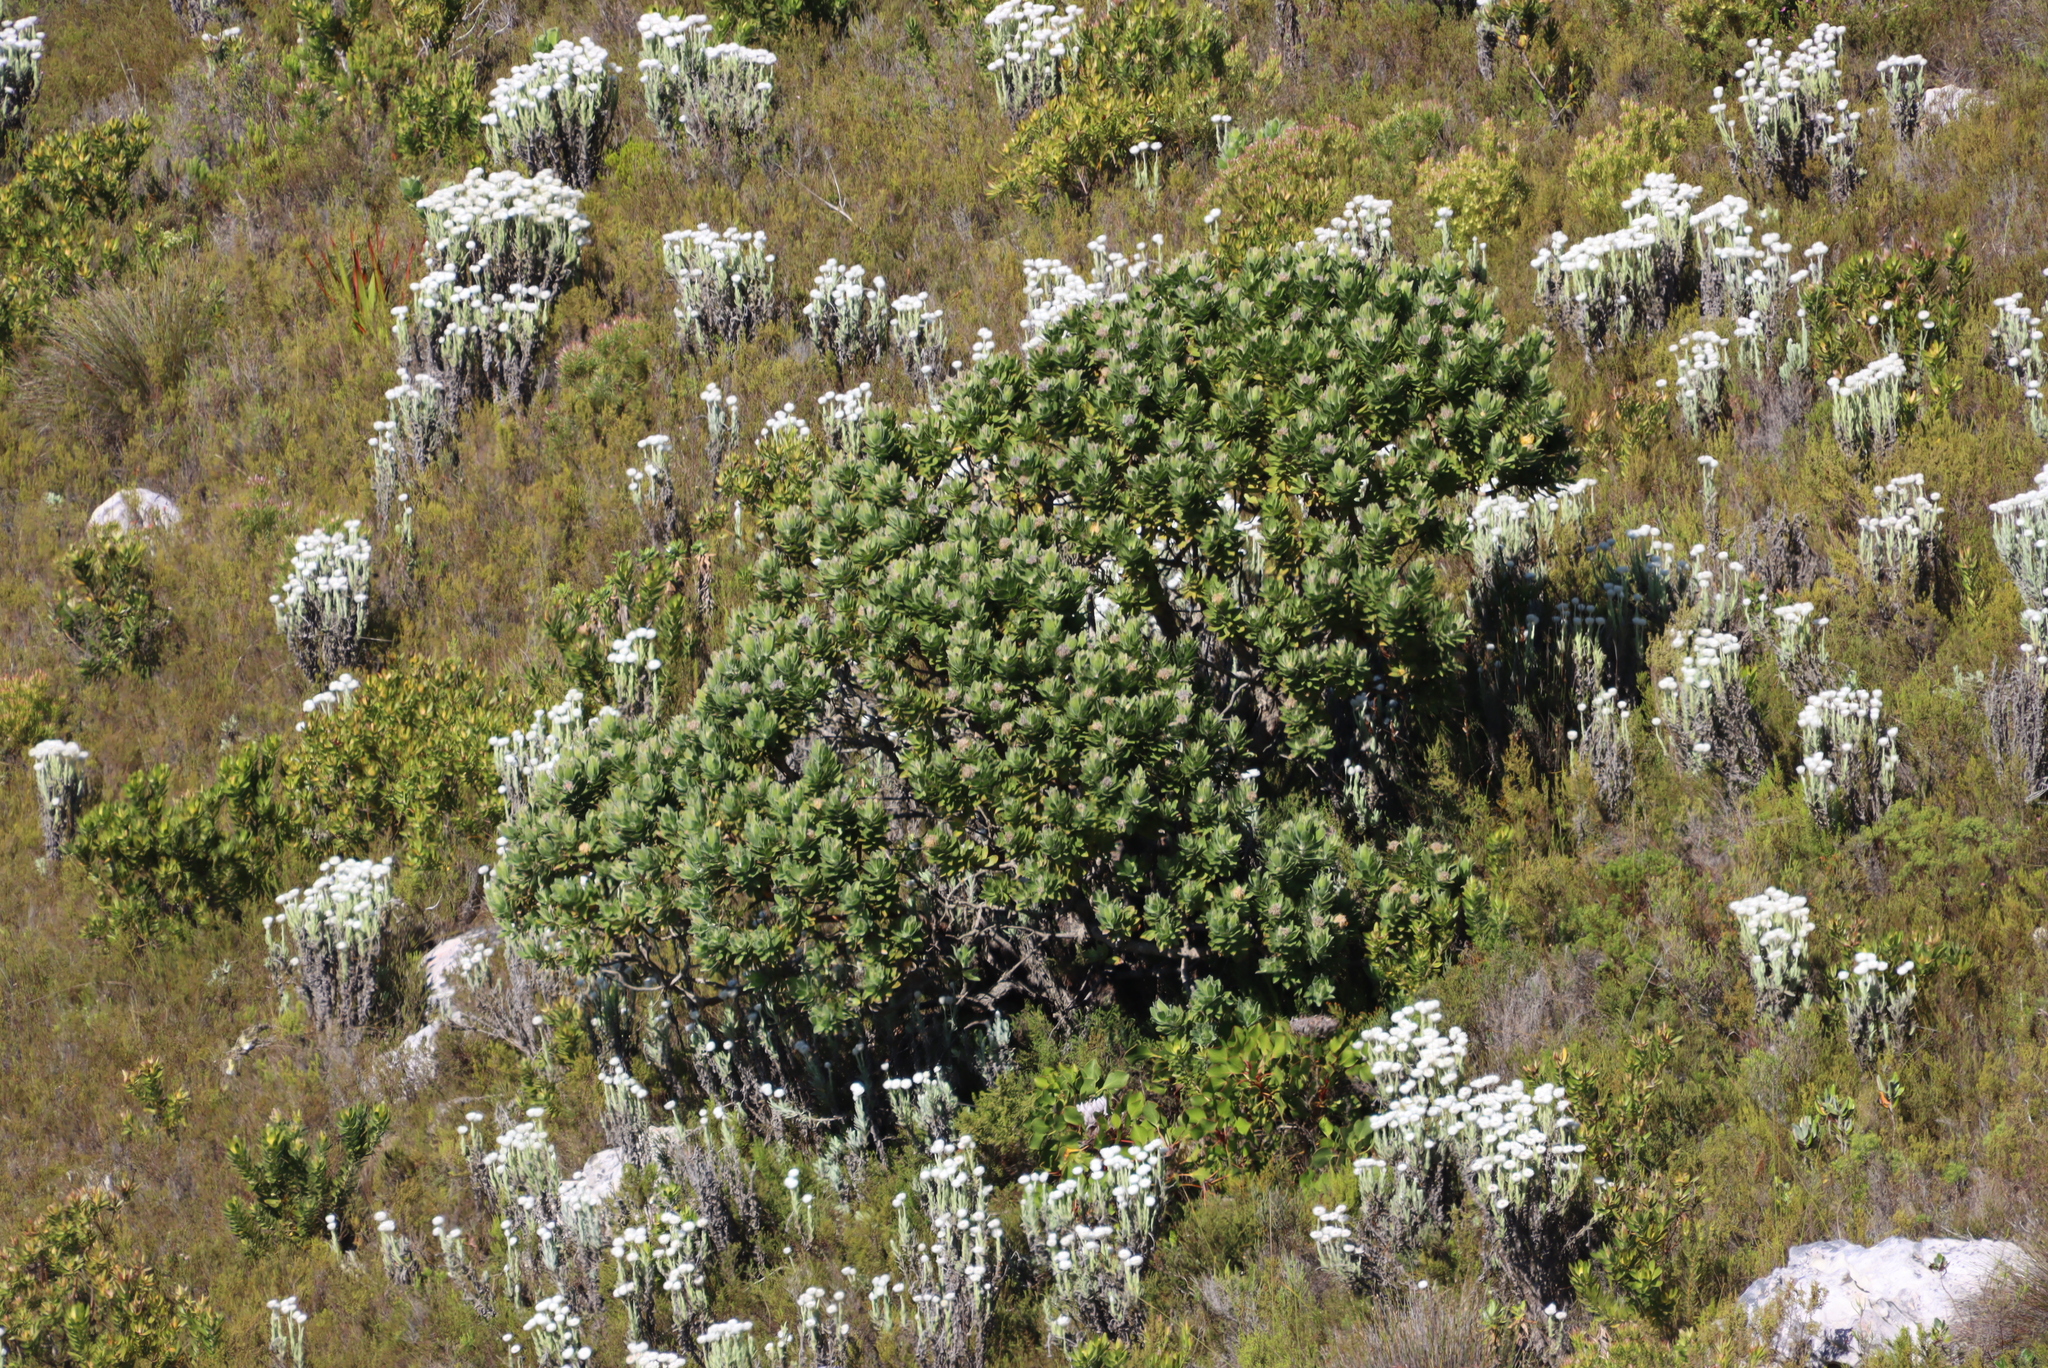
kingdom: Plantae
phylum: Tracheophyta
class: Magnoliopsida
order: Proteales
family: Proteaceae
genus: Leucospermum
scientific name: Leucospermum conocarpodendron
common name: Tree pincushion
